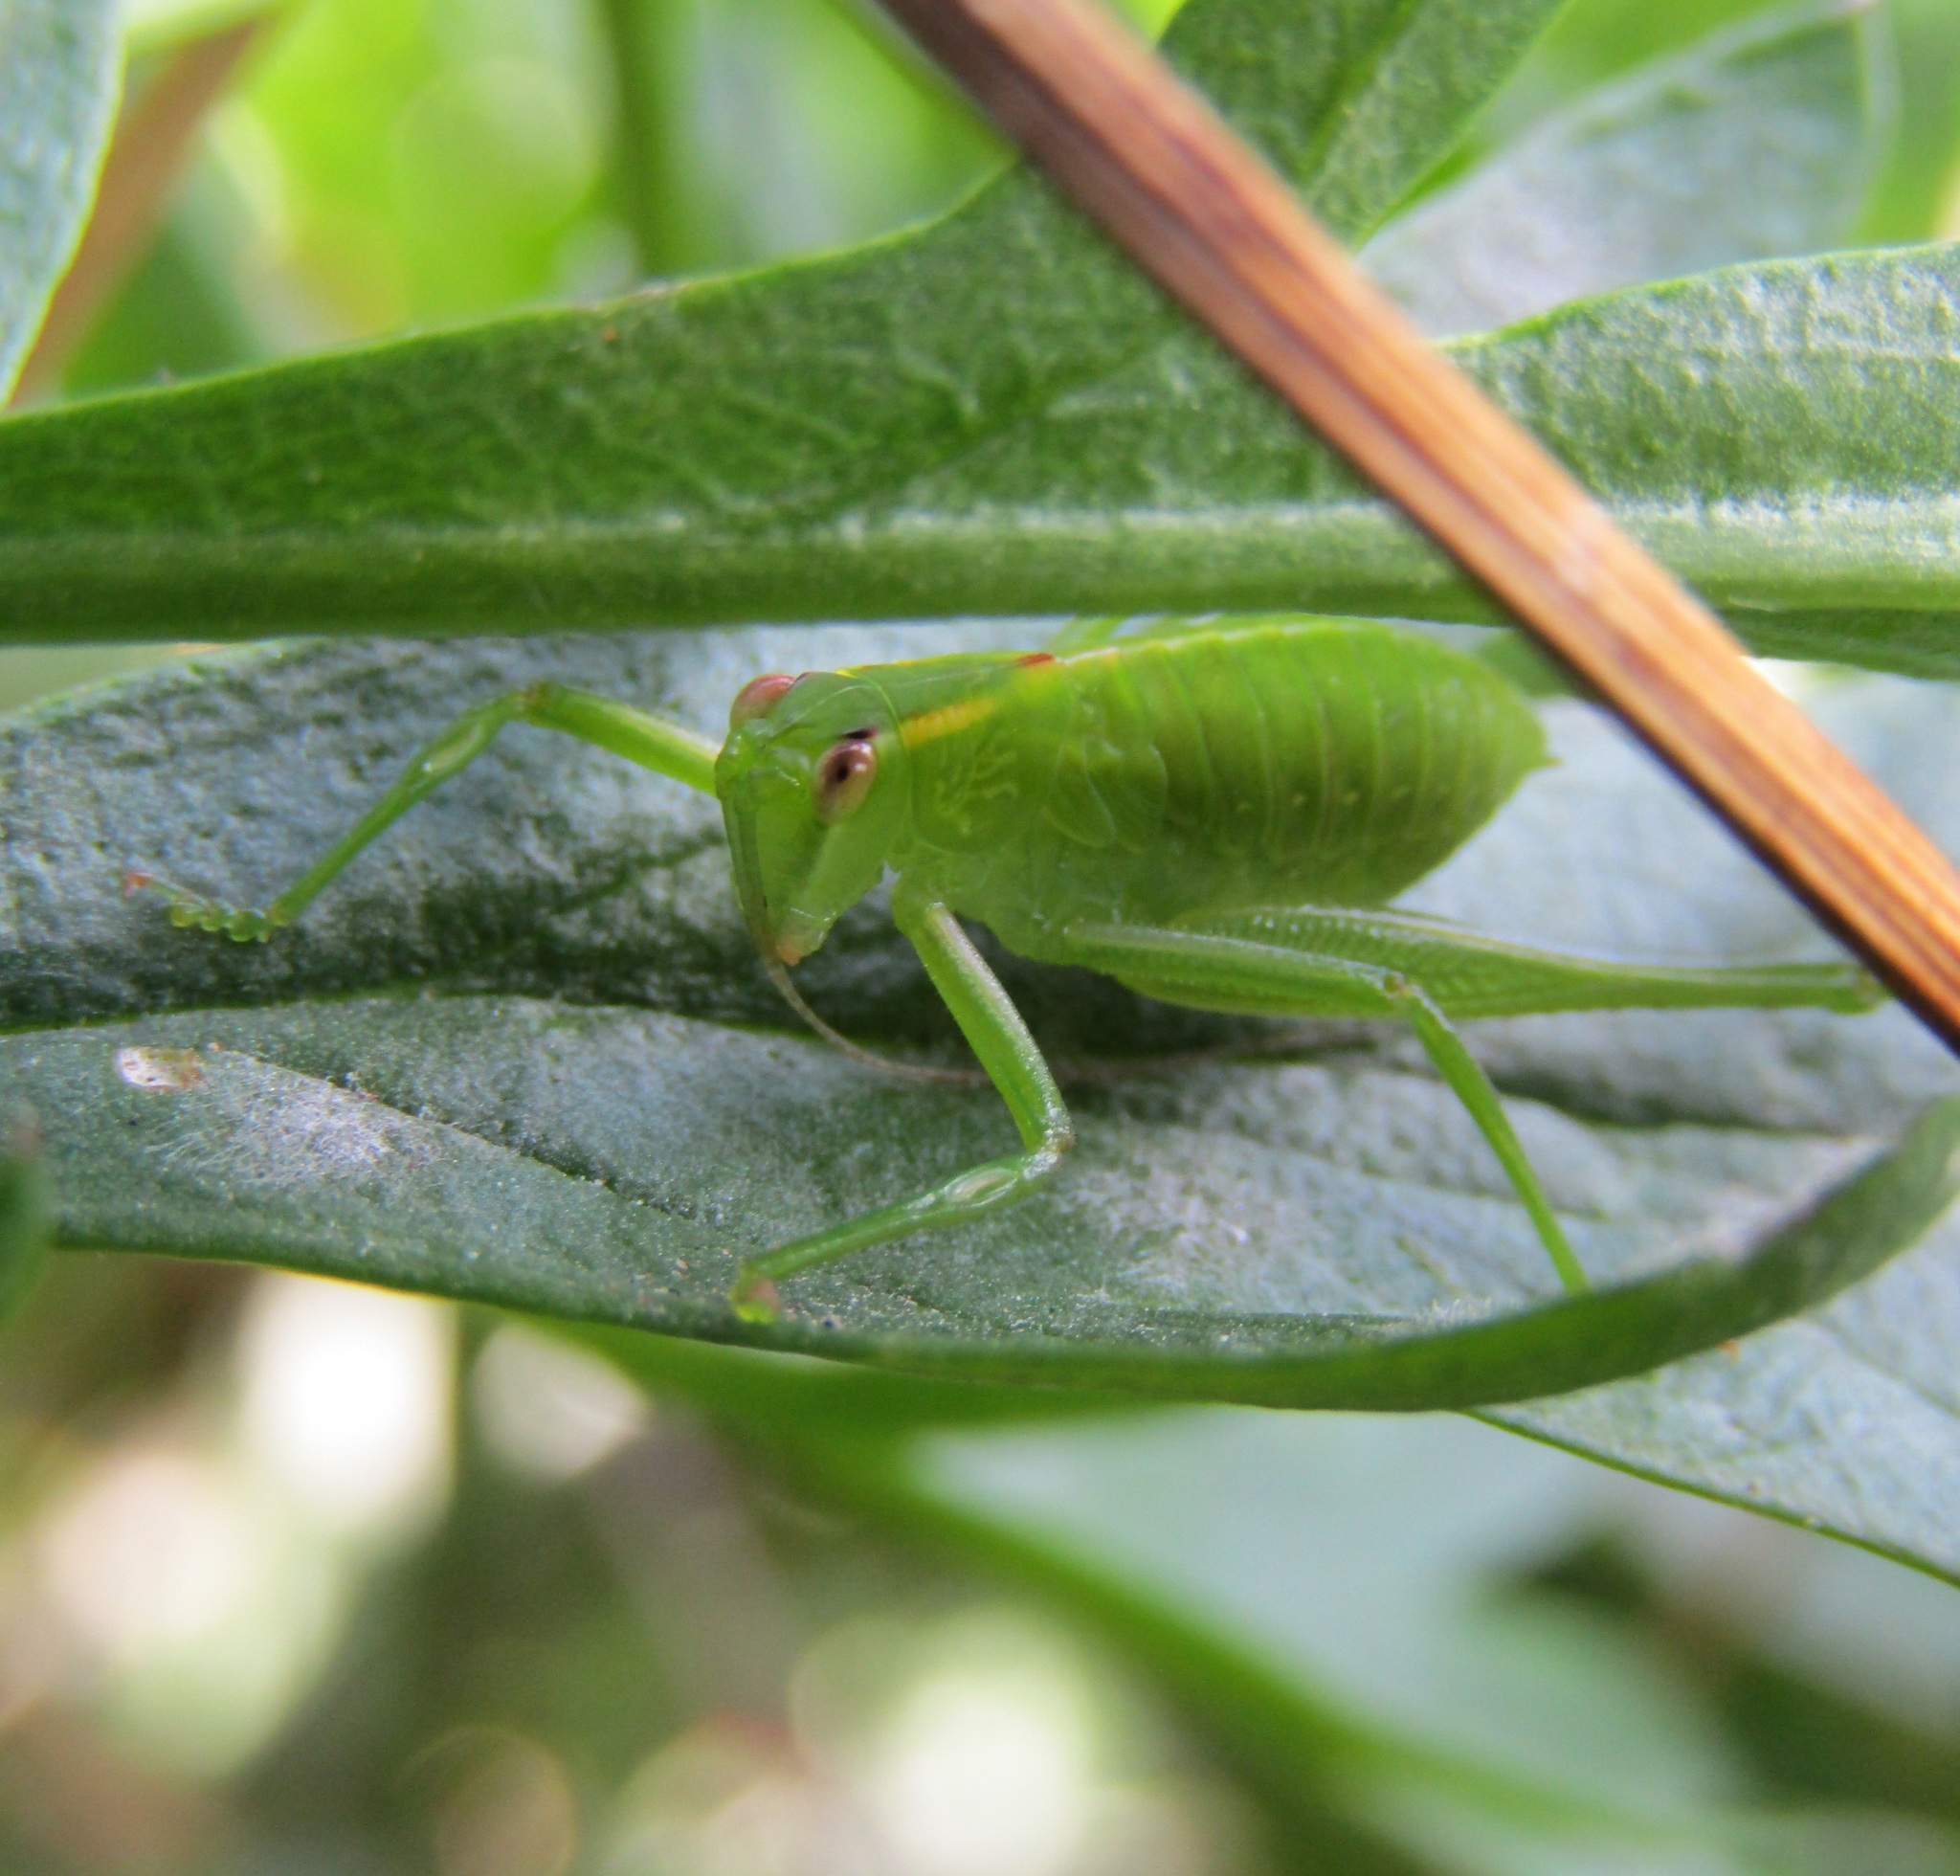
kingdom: Animalia
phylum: Arthropoda
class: Insecta
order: Orthoptera
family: Tettigoniidae
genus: Caedicia
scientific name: Caedicia simplex
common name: Common garden katydid
